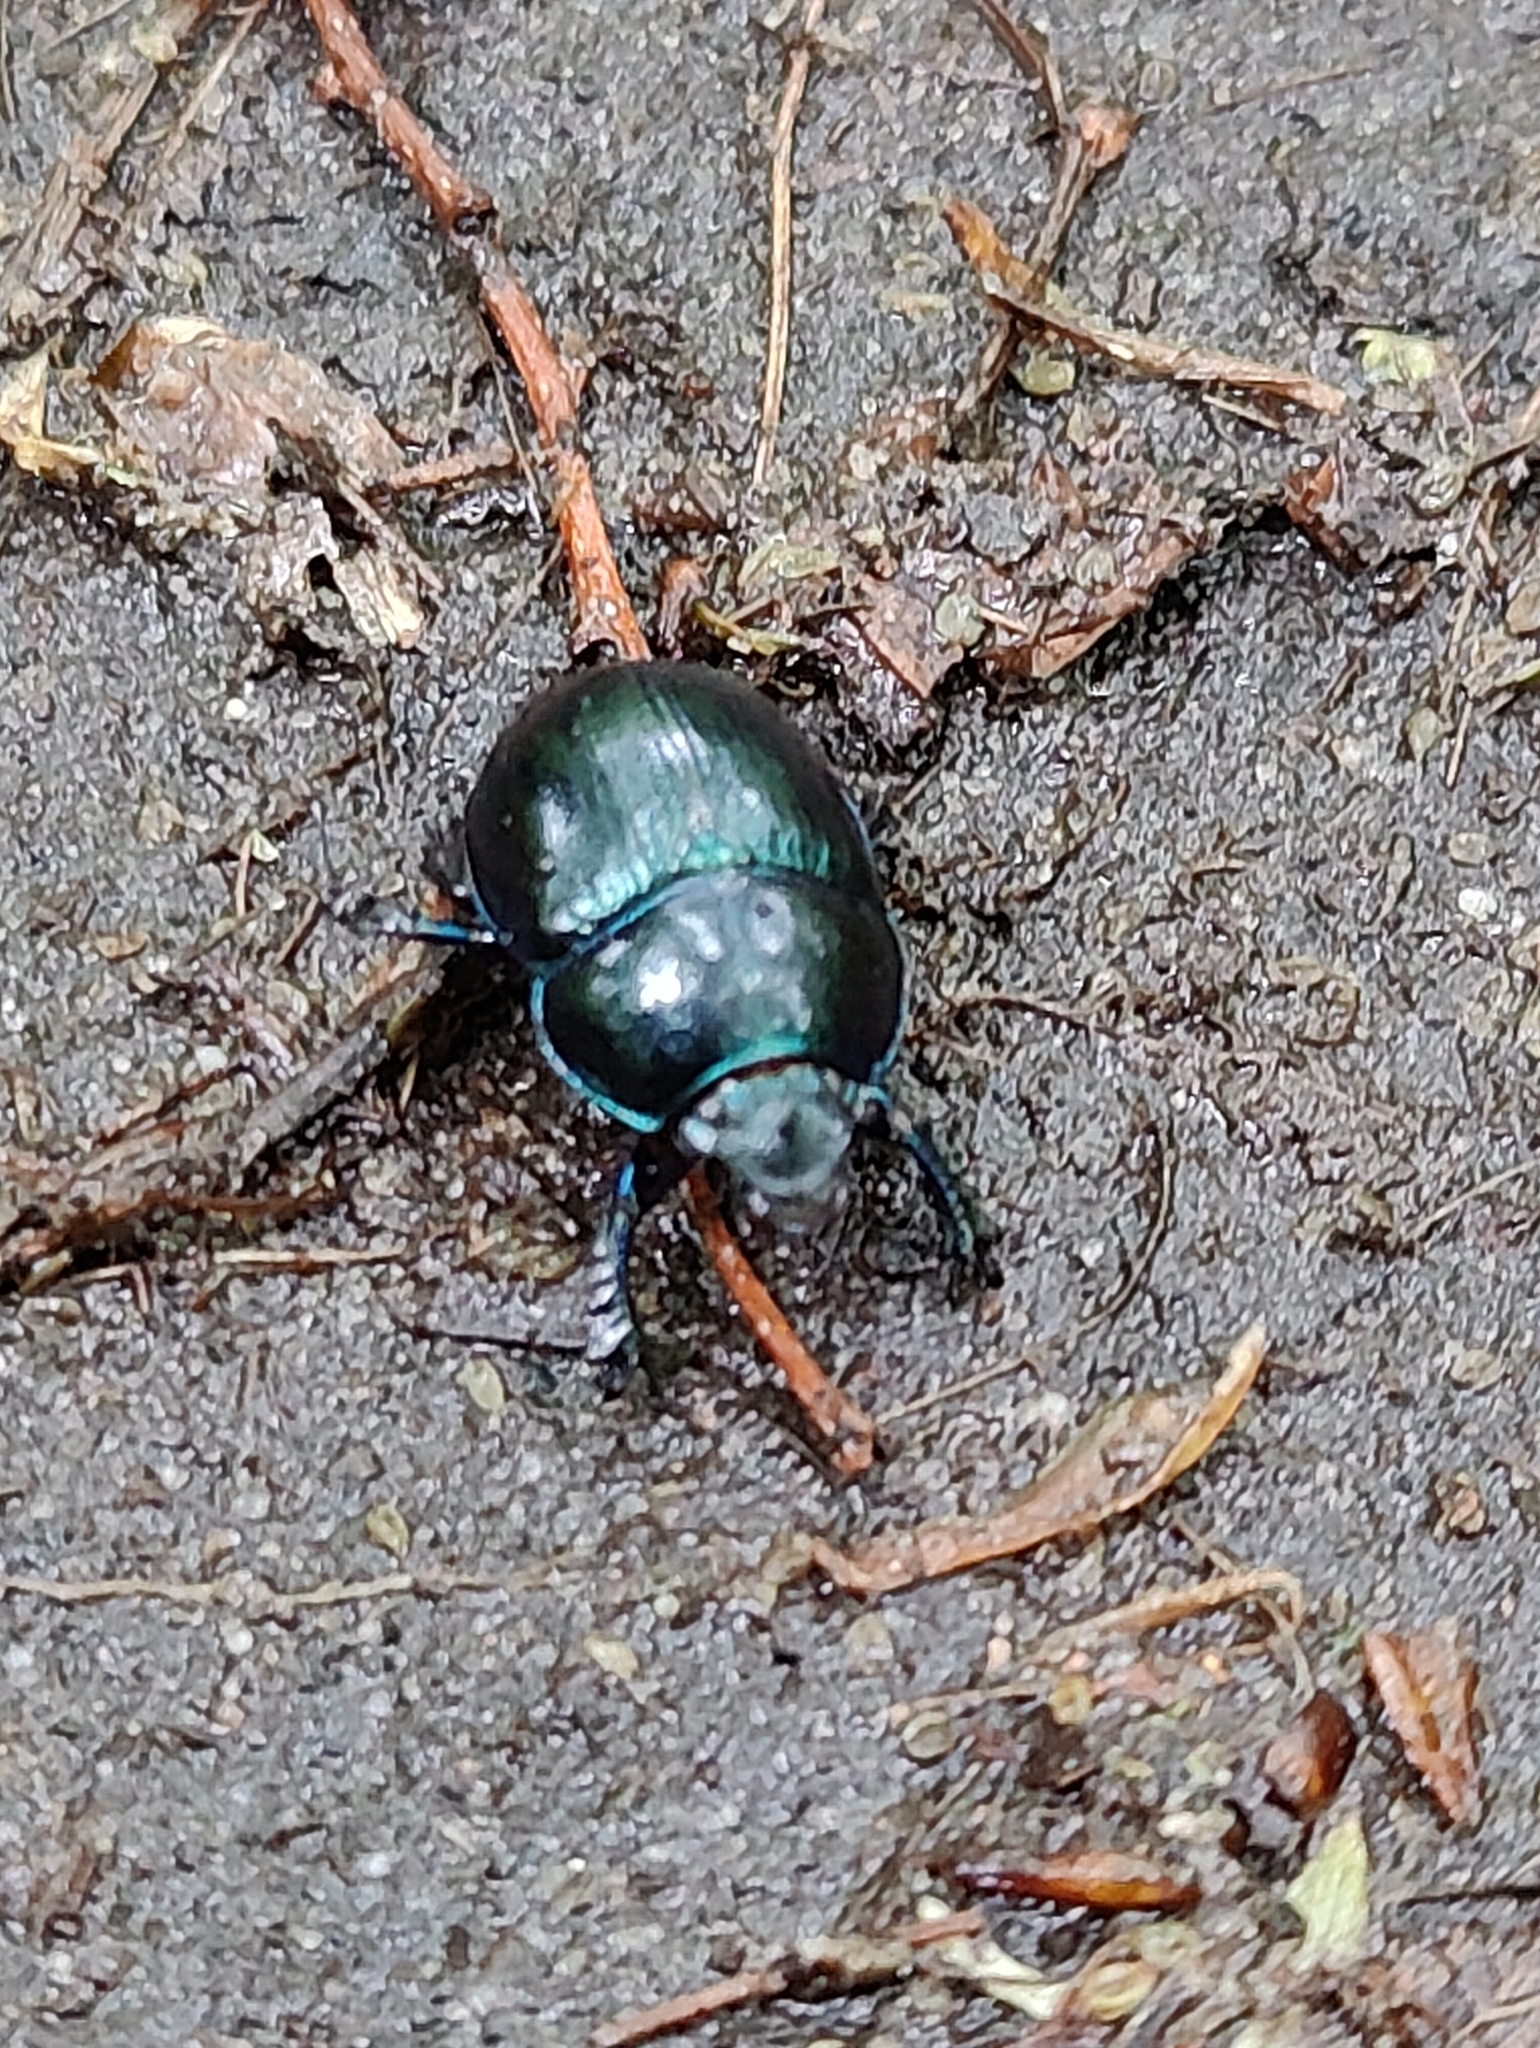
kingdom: Animalia
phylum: Arthropoda
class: Insecta
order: Coleoptera
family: Geotrupidae
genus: Anoplotrupes
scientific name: Anoplotrupes stercorosus
